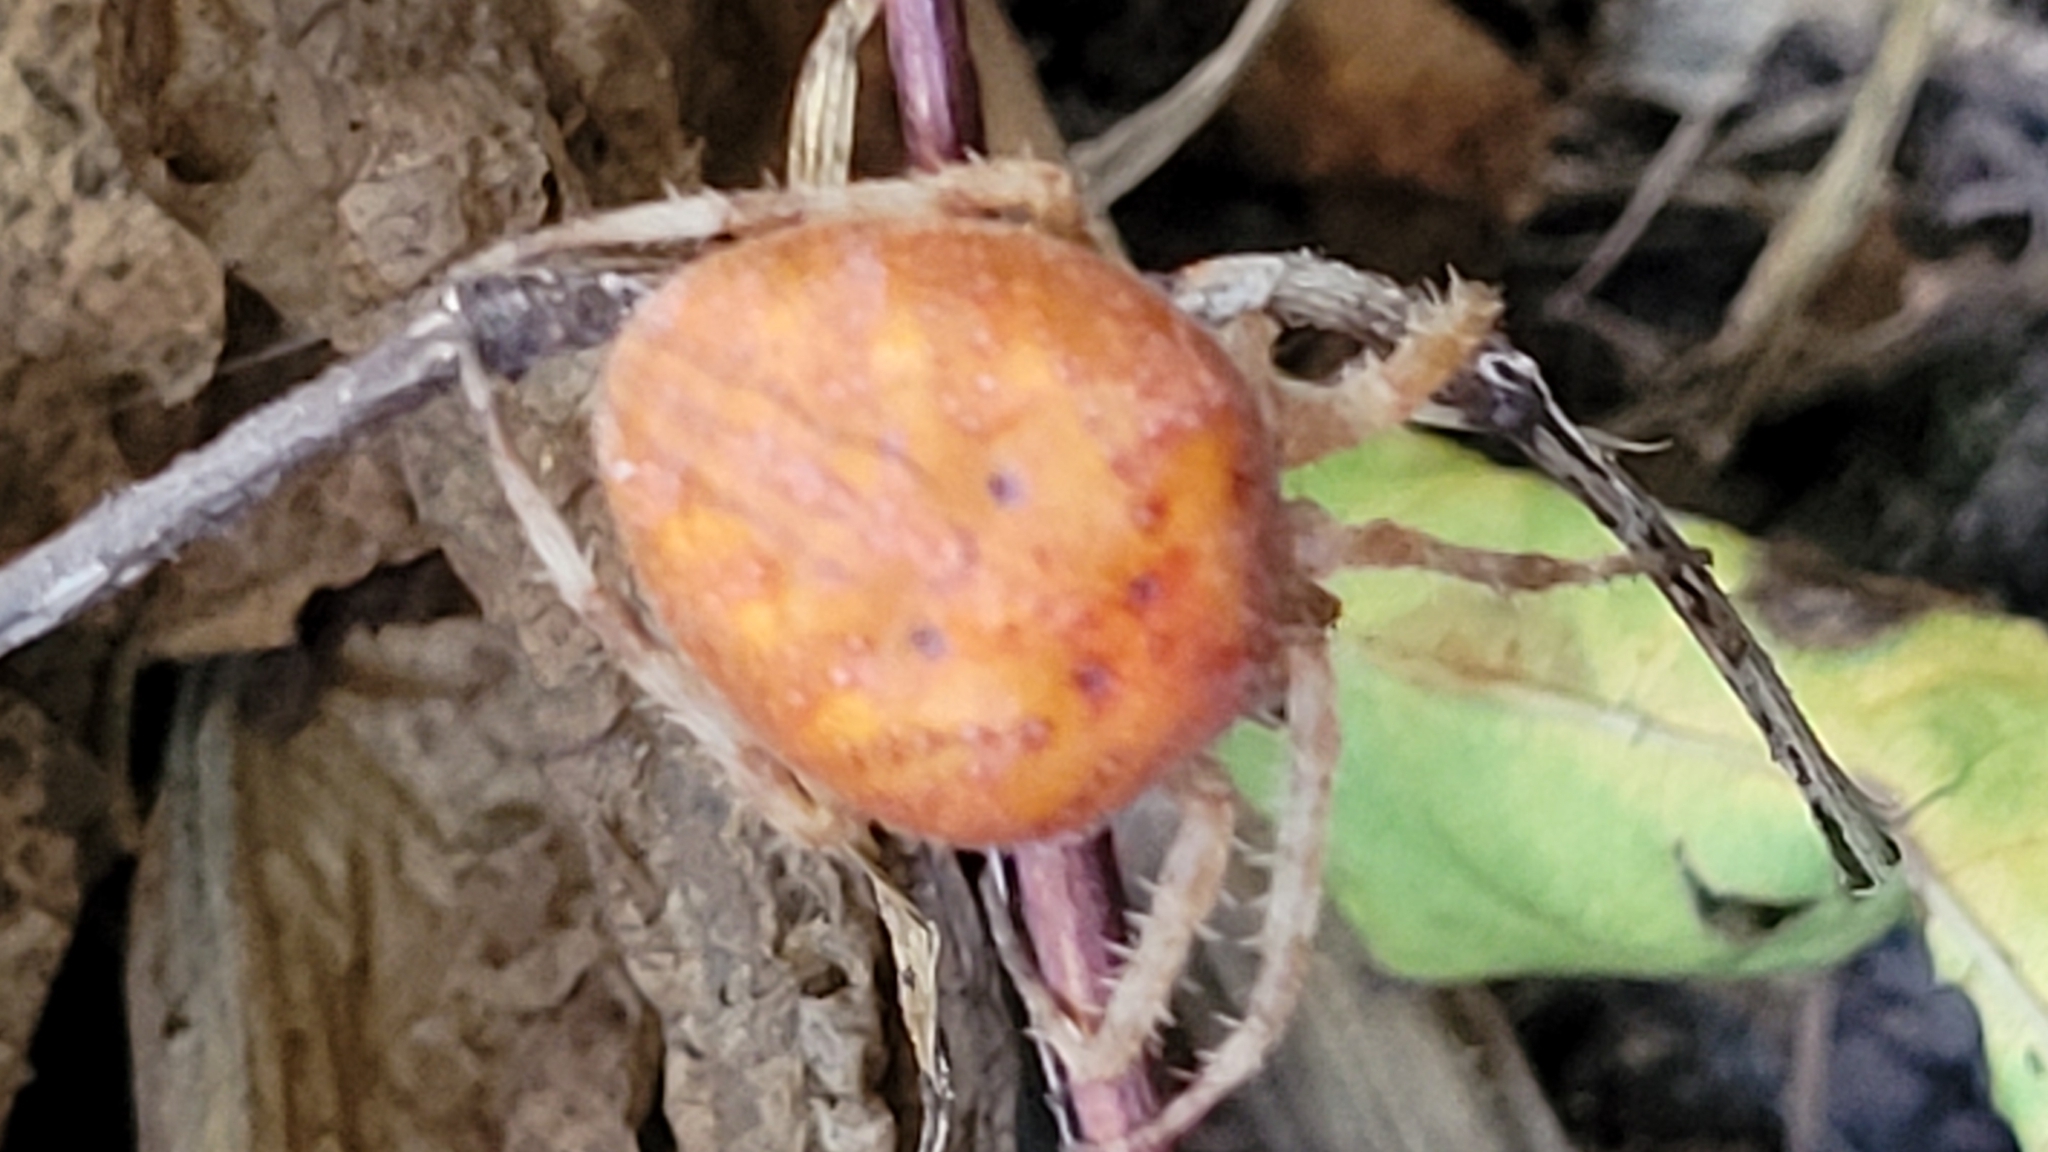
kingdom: Animalia
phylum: Arthropoda
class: Arachnida
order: Araneae
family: Araneidae
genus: Araneus
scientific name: Araneus marmoreus
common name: Marbled orbweaver
